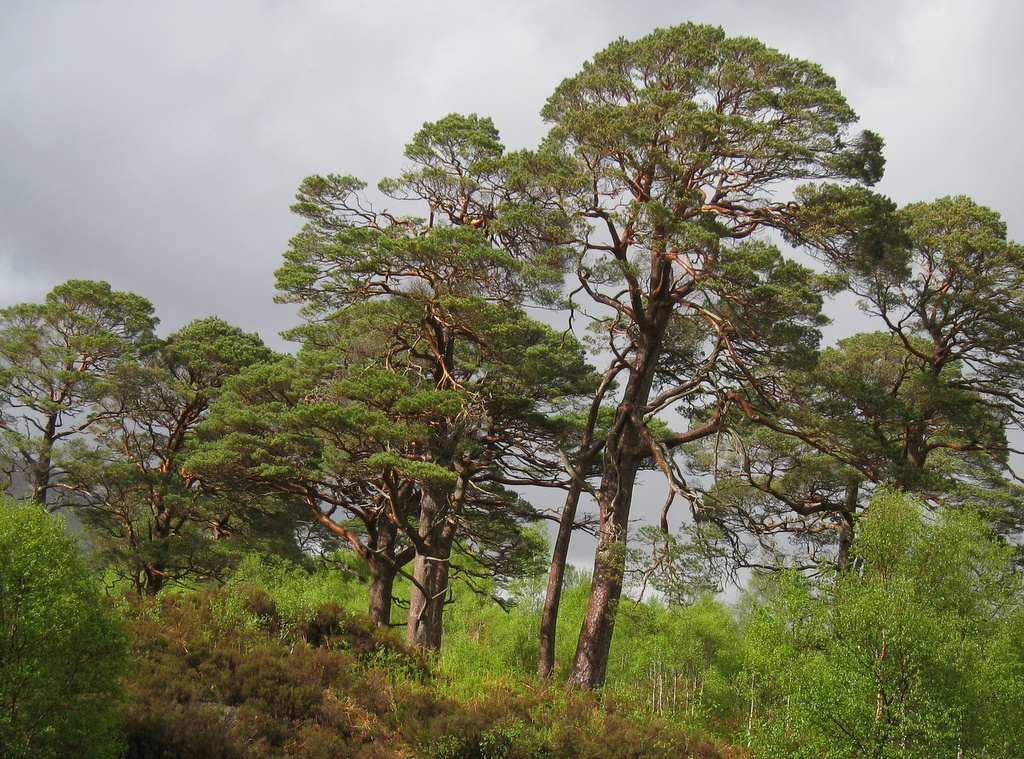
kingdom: Plantae
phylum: Tracheophyta
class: Pinopsida
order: Pinales
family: Pinaceae
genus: Pinus
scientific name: Pinus sylvestris
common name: Scots pine
